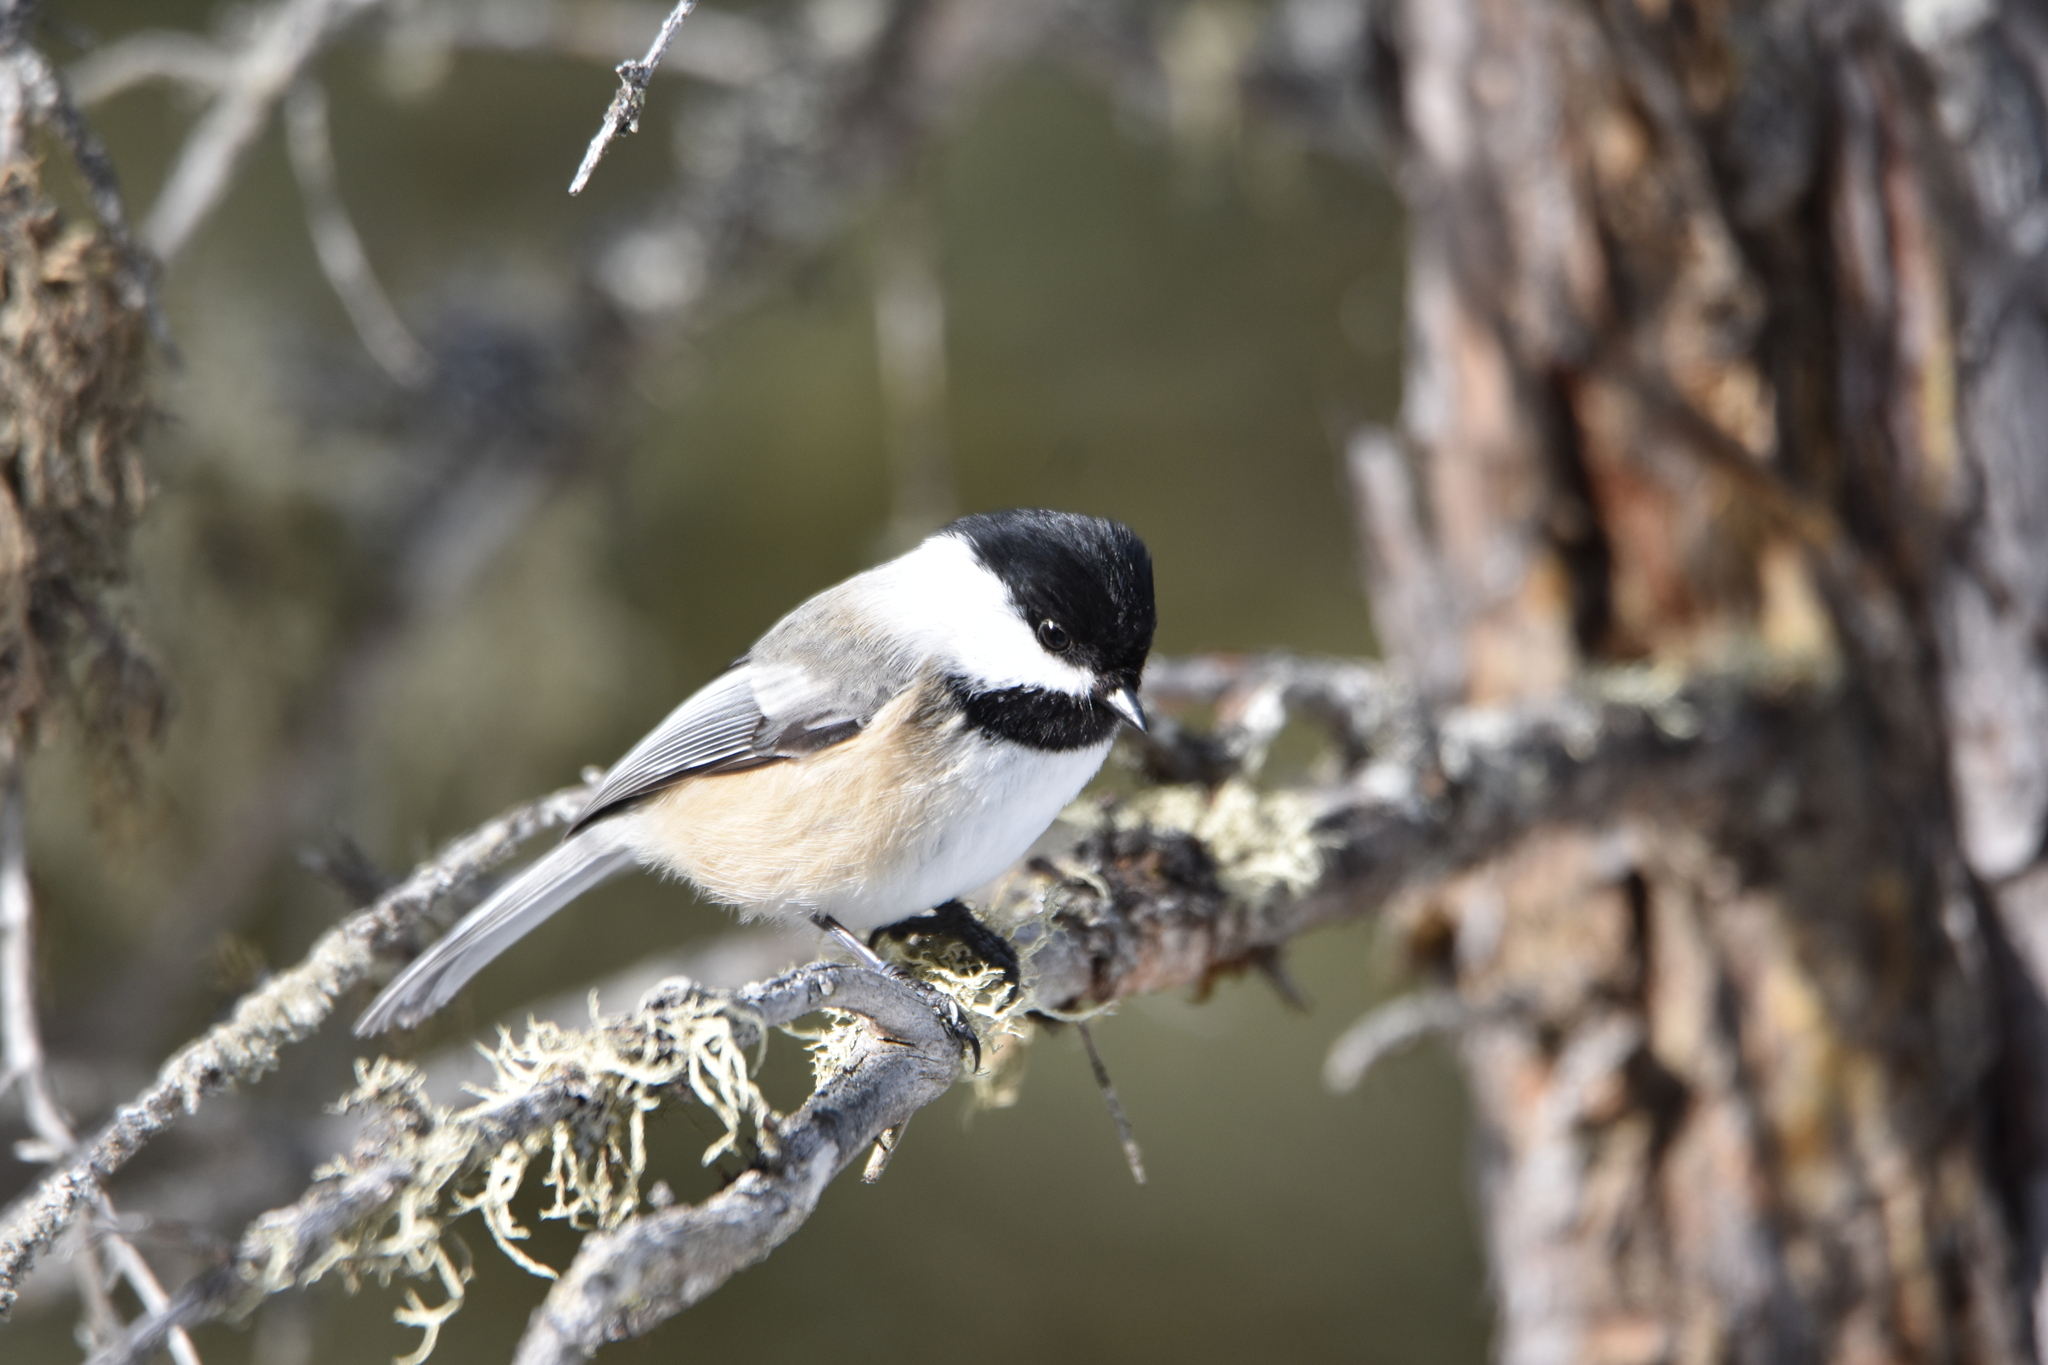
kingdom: Animalia
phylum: Chordata
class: Aves
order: Passeriformes
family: Paridae
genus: Poecile
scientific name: Poecile atricapillus
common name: Black-capped chickadee
